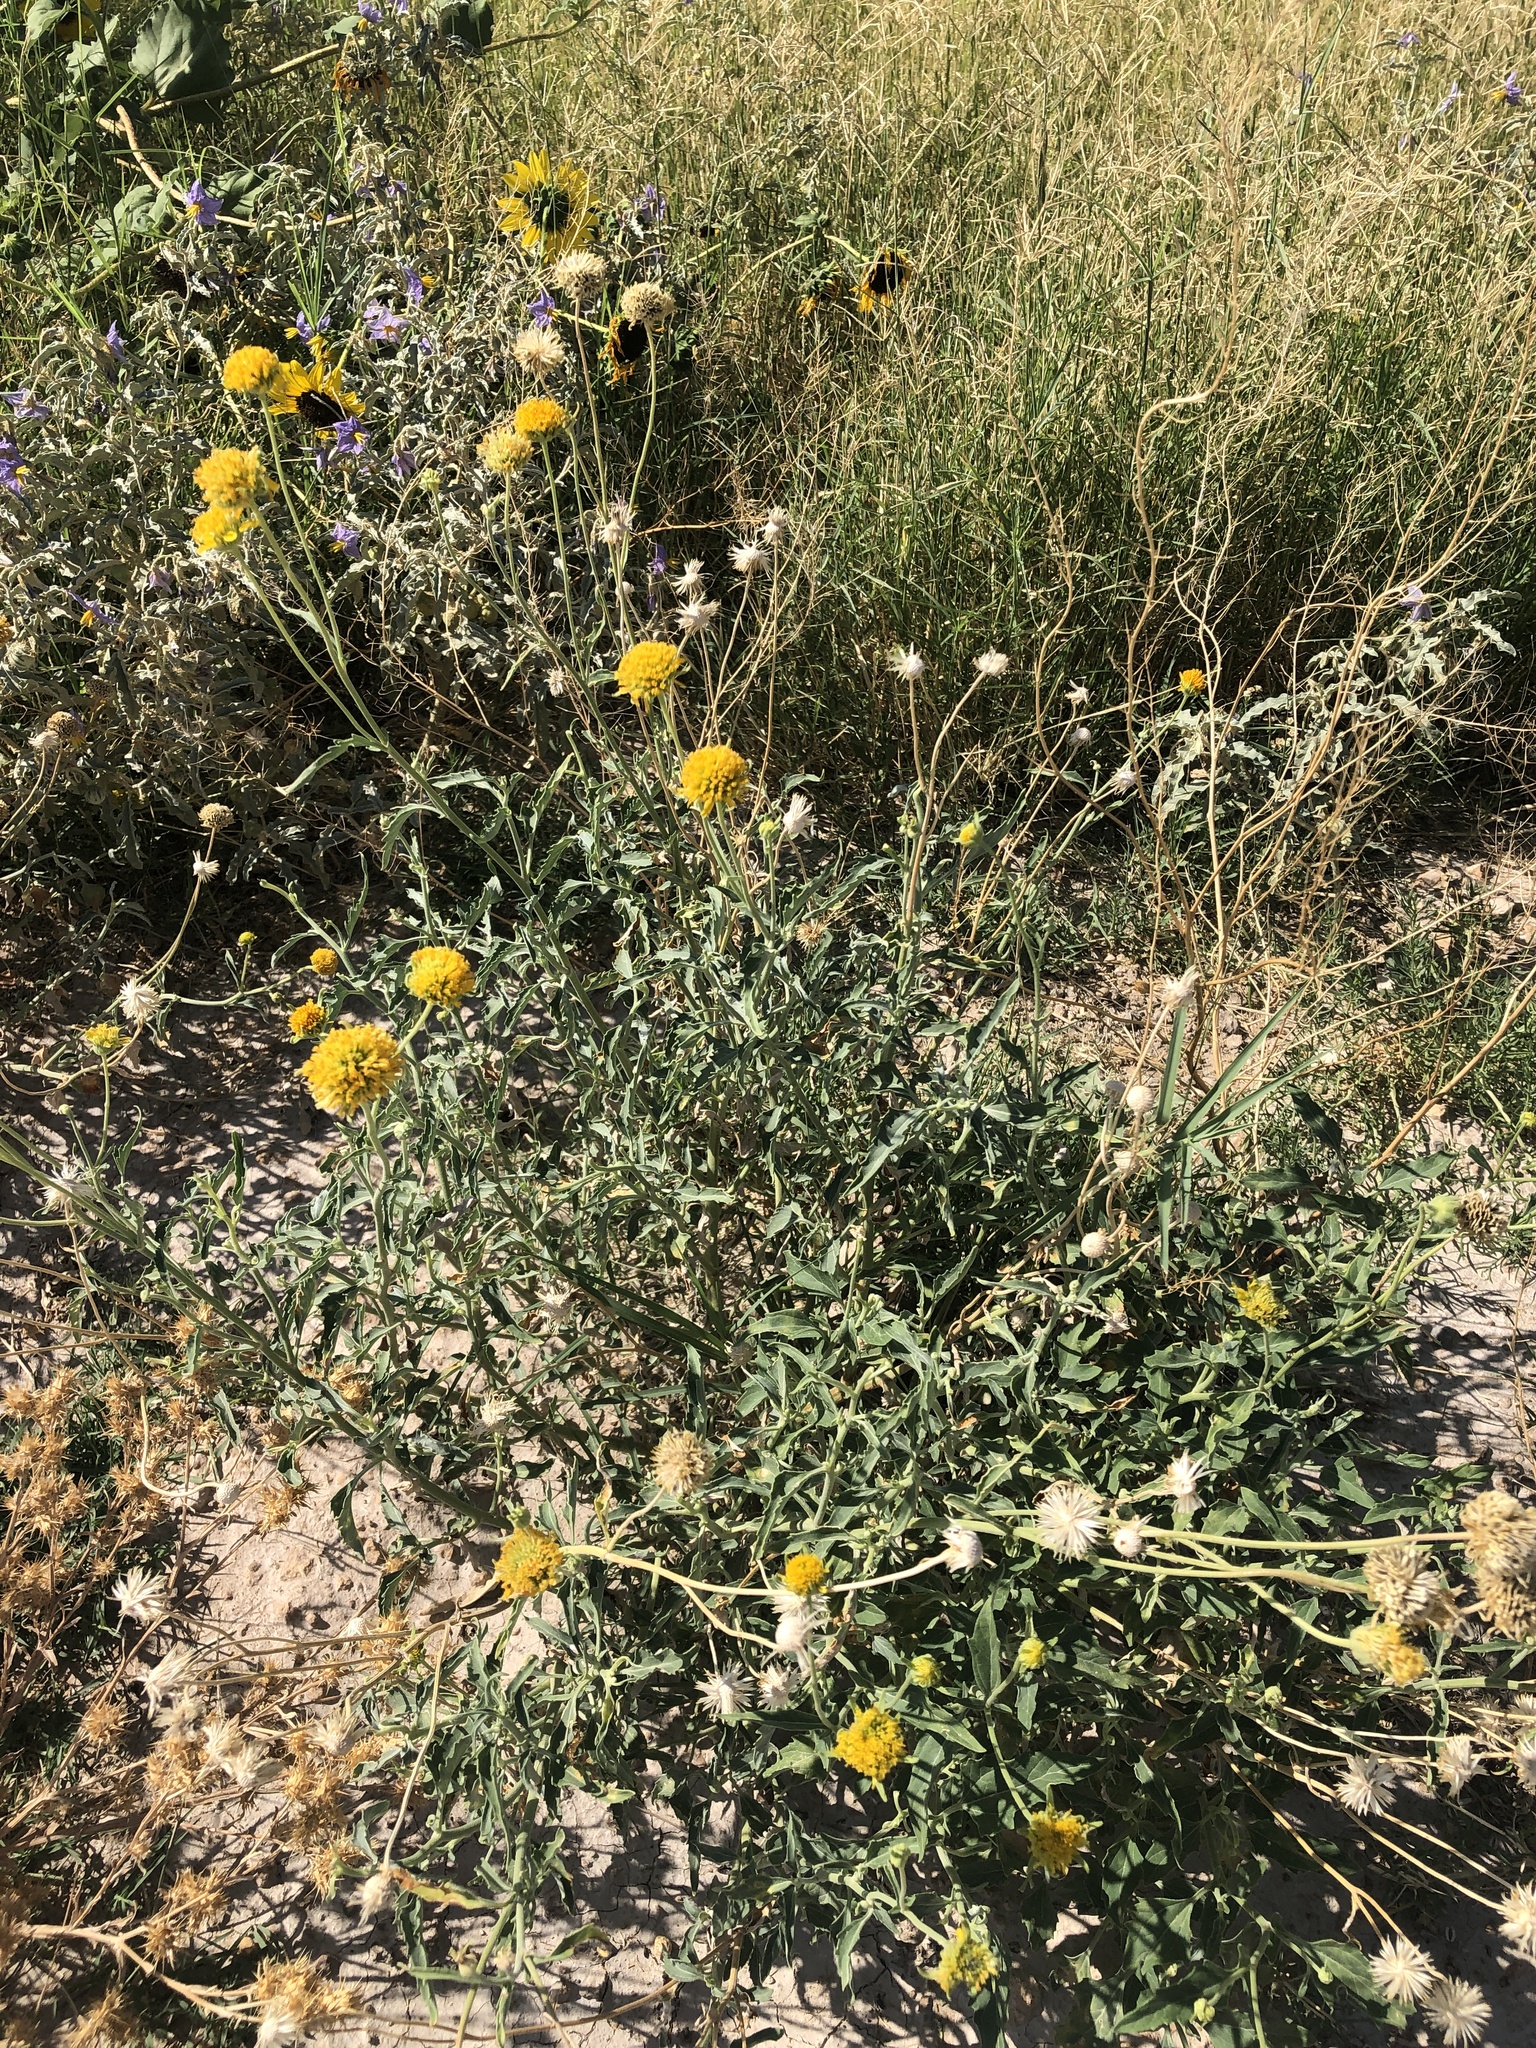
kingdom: Plantae
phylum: Tracheophyta
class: Magnoliopsida
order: Asterales
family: Asteraceae
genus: Verbesina
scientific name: Verbesina encelioides
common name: Golden crownbeard
